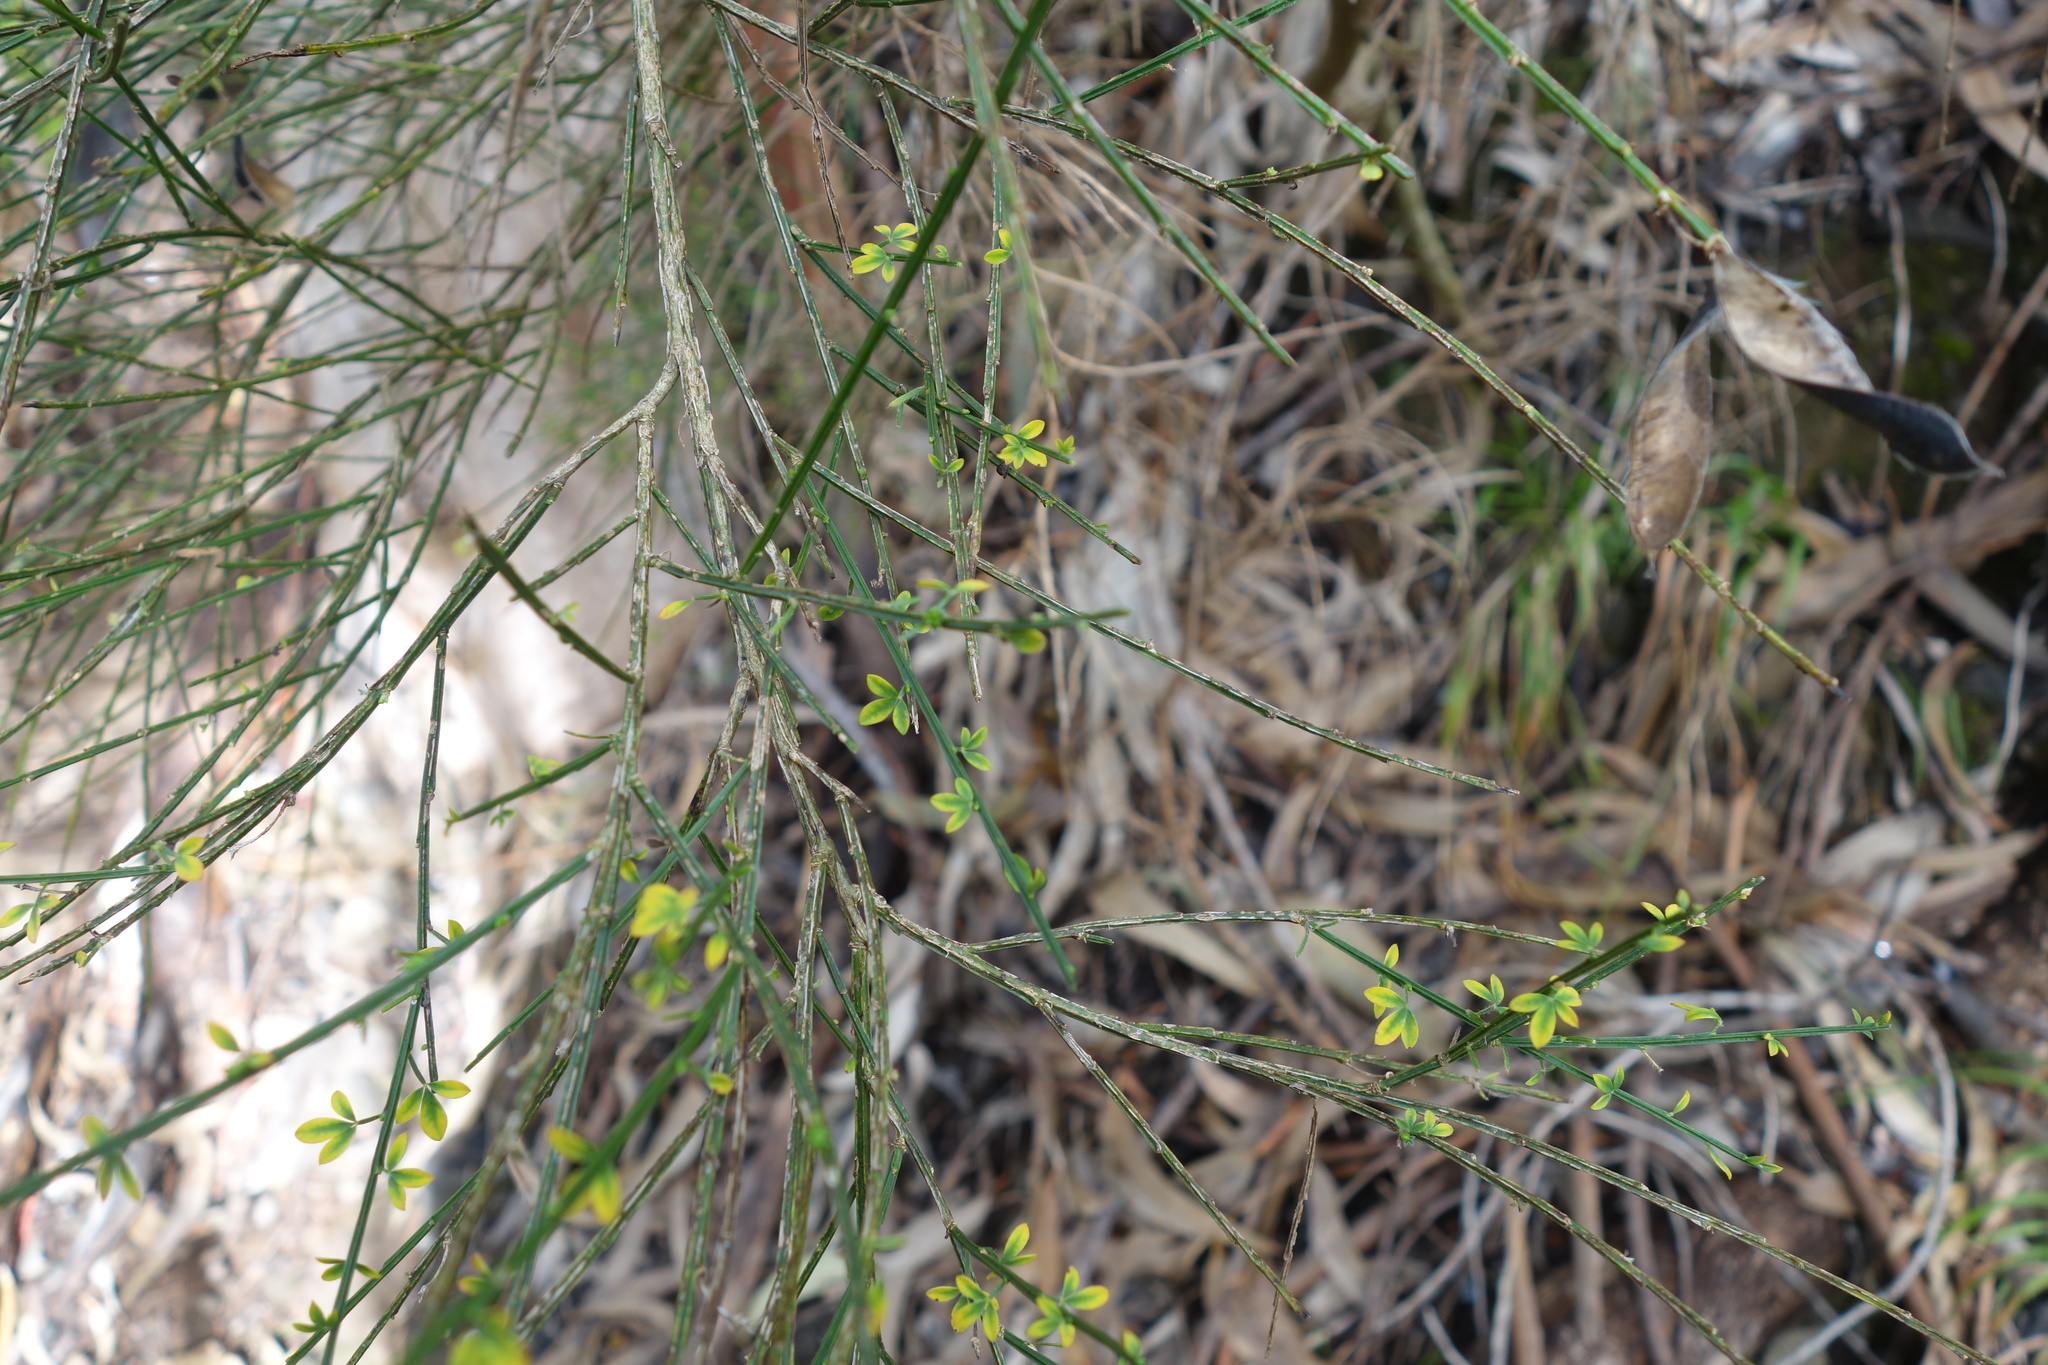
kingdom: Plantae
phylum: Tracheophyta
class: Magnoliopsida
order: Fabales
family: Fabaceae
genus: Cytisus
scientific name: Cytisus scoparius
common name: Scotch broom
